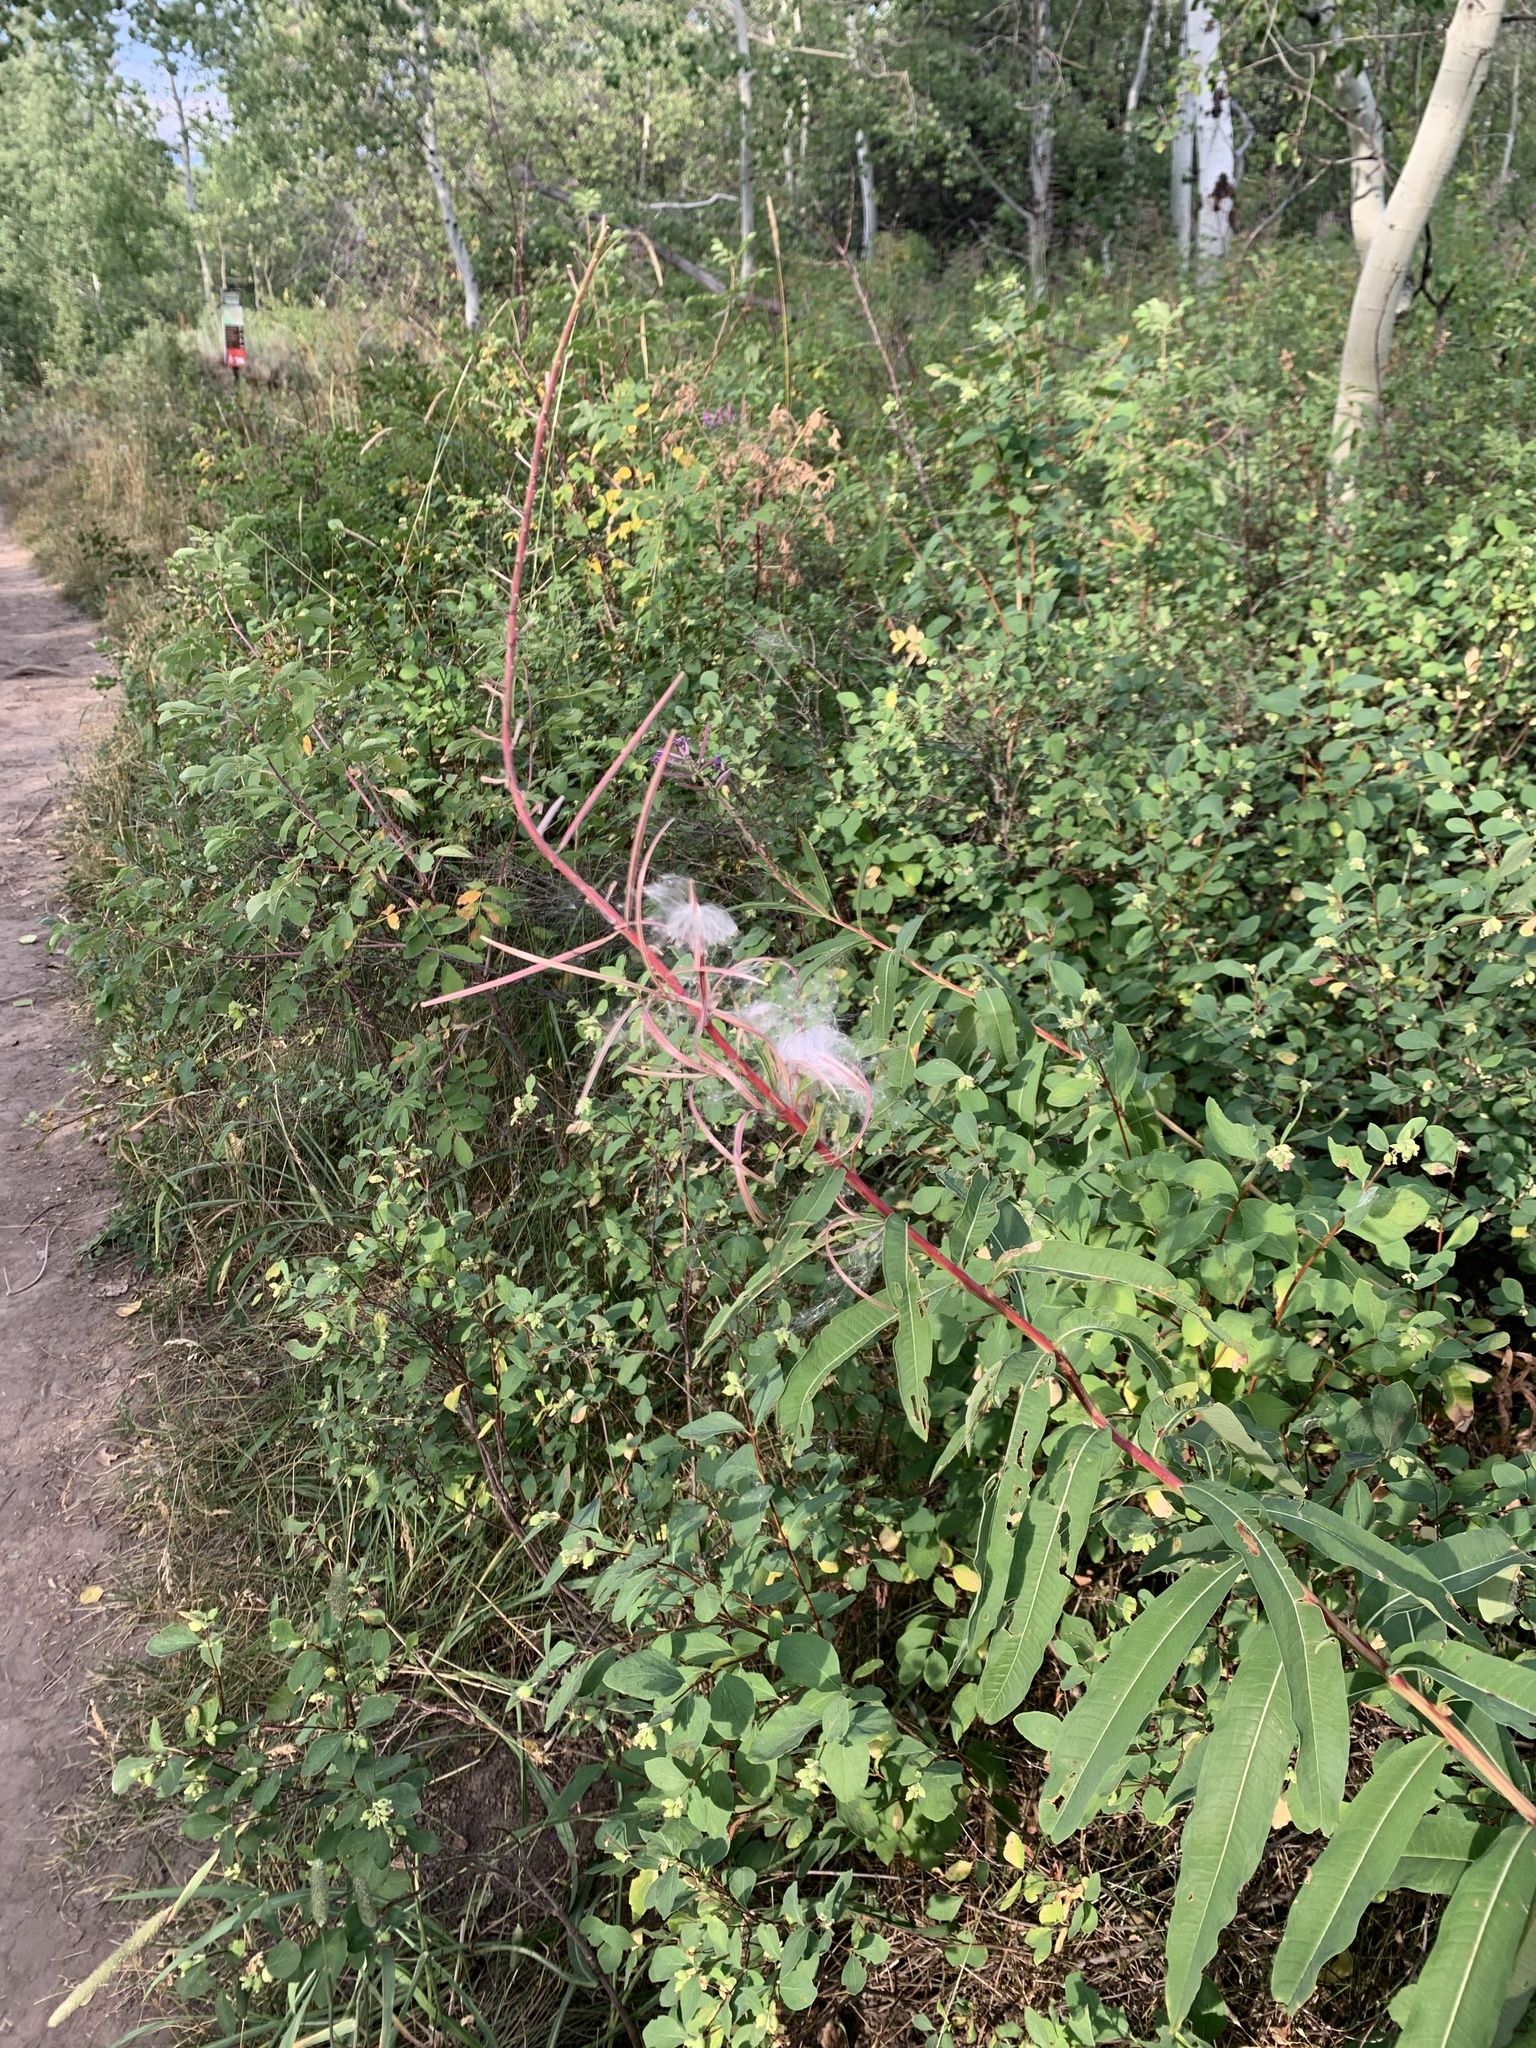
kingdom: Plantae
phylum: Tracheophyta
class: Magnoliopsida
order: Myrtales
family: Onagraceae
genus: Chamaenerion
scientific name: Chamaenerion angustifolium
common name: Fireweed
